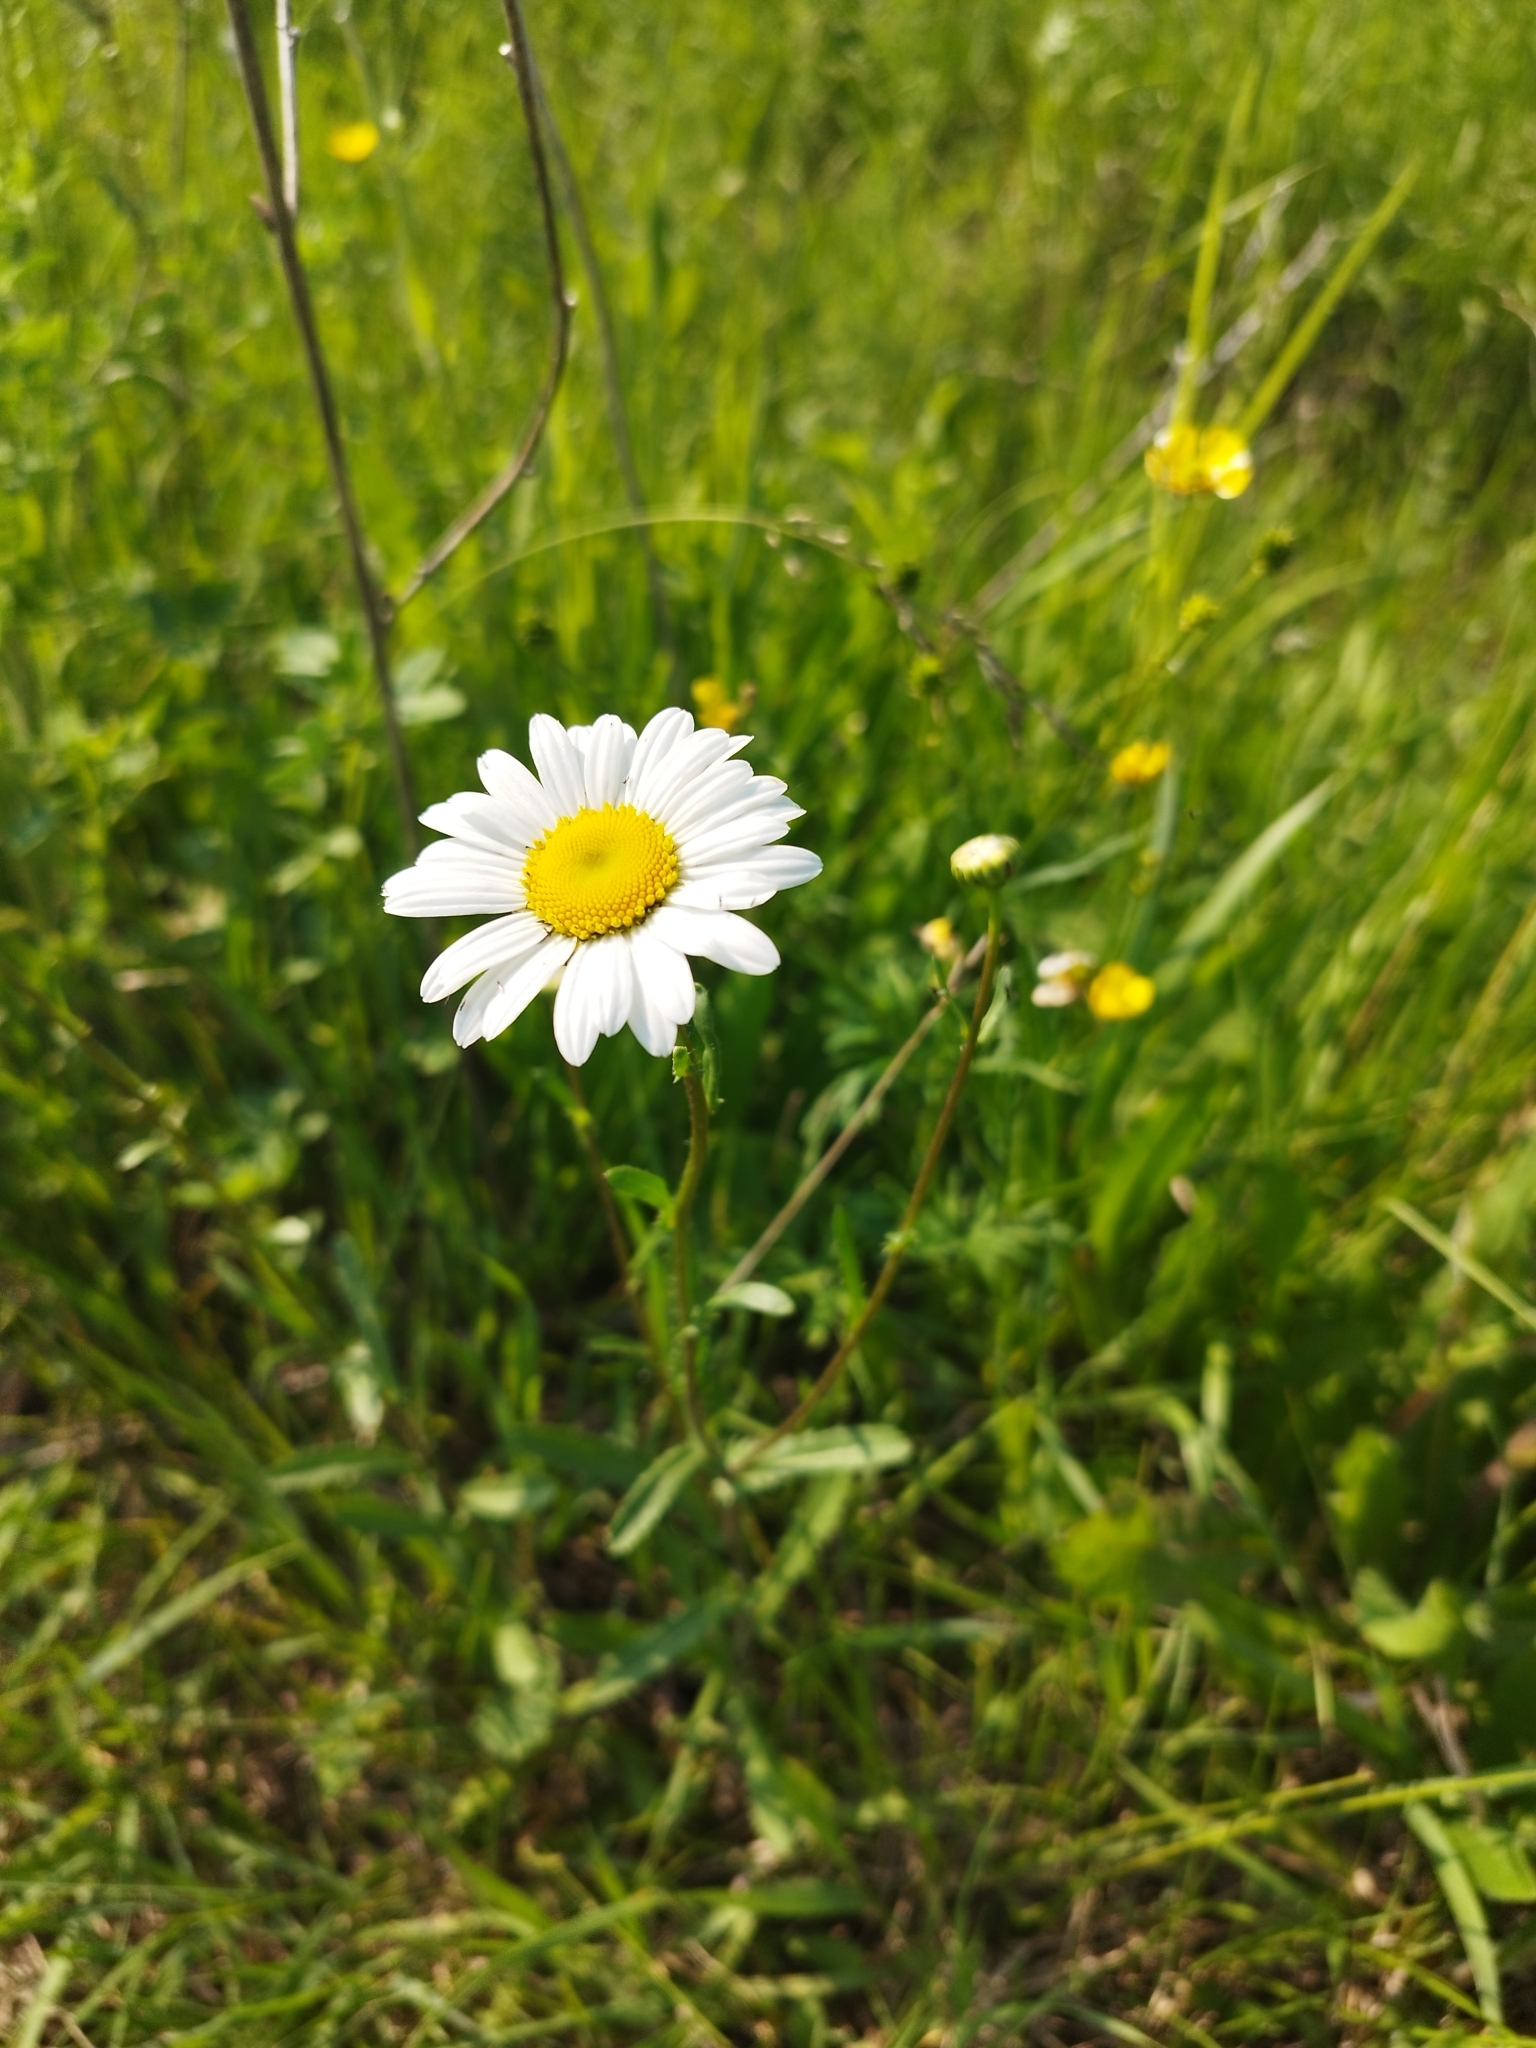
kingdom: Plantae
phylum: Tracheophyta
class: Magnoliopsida
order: Asterales
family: Asteraceae
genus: Leucanthemum
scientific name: Leucanthemum vulgare
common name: Oxeye daisy
